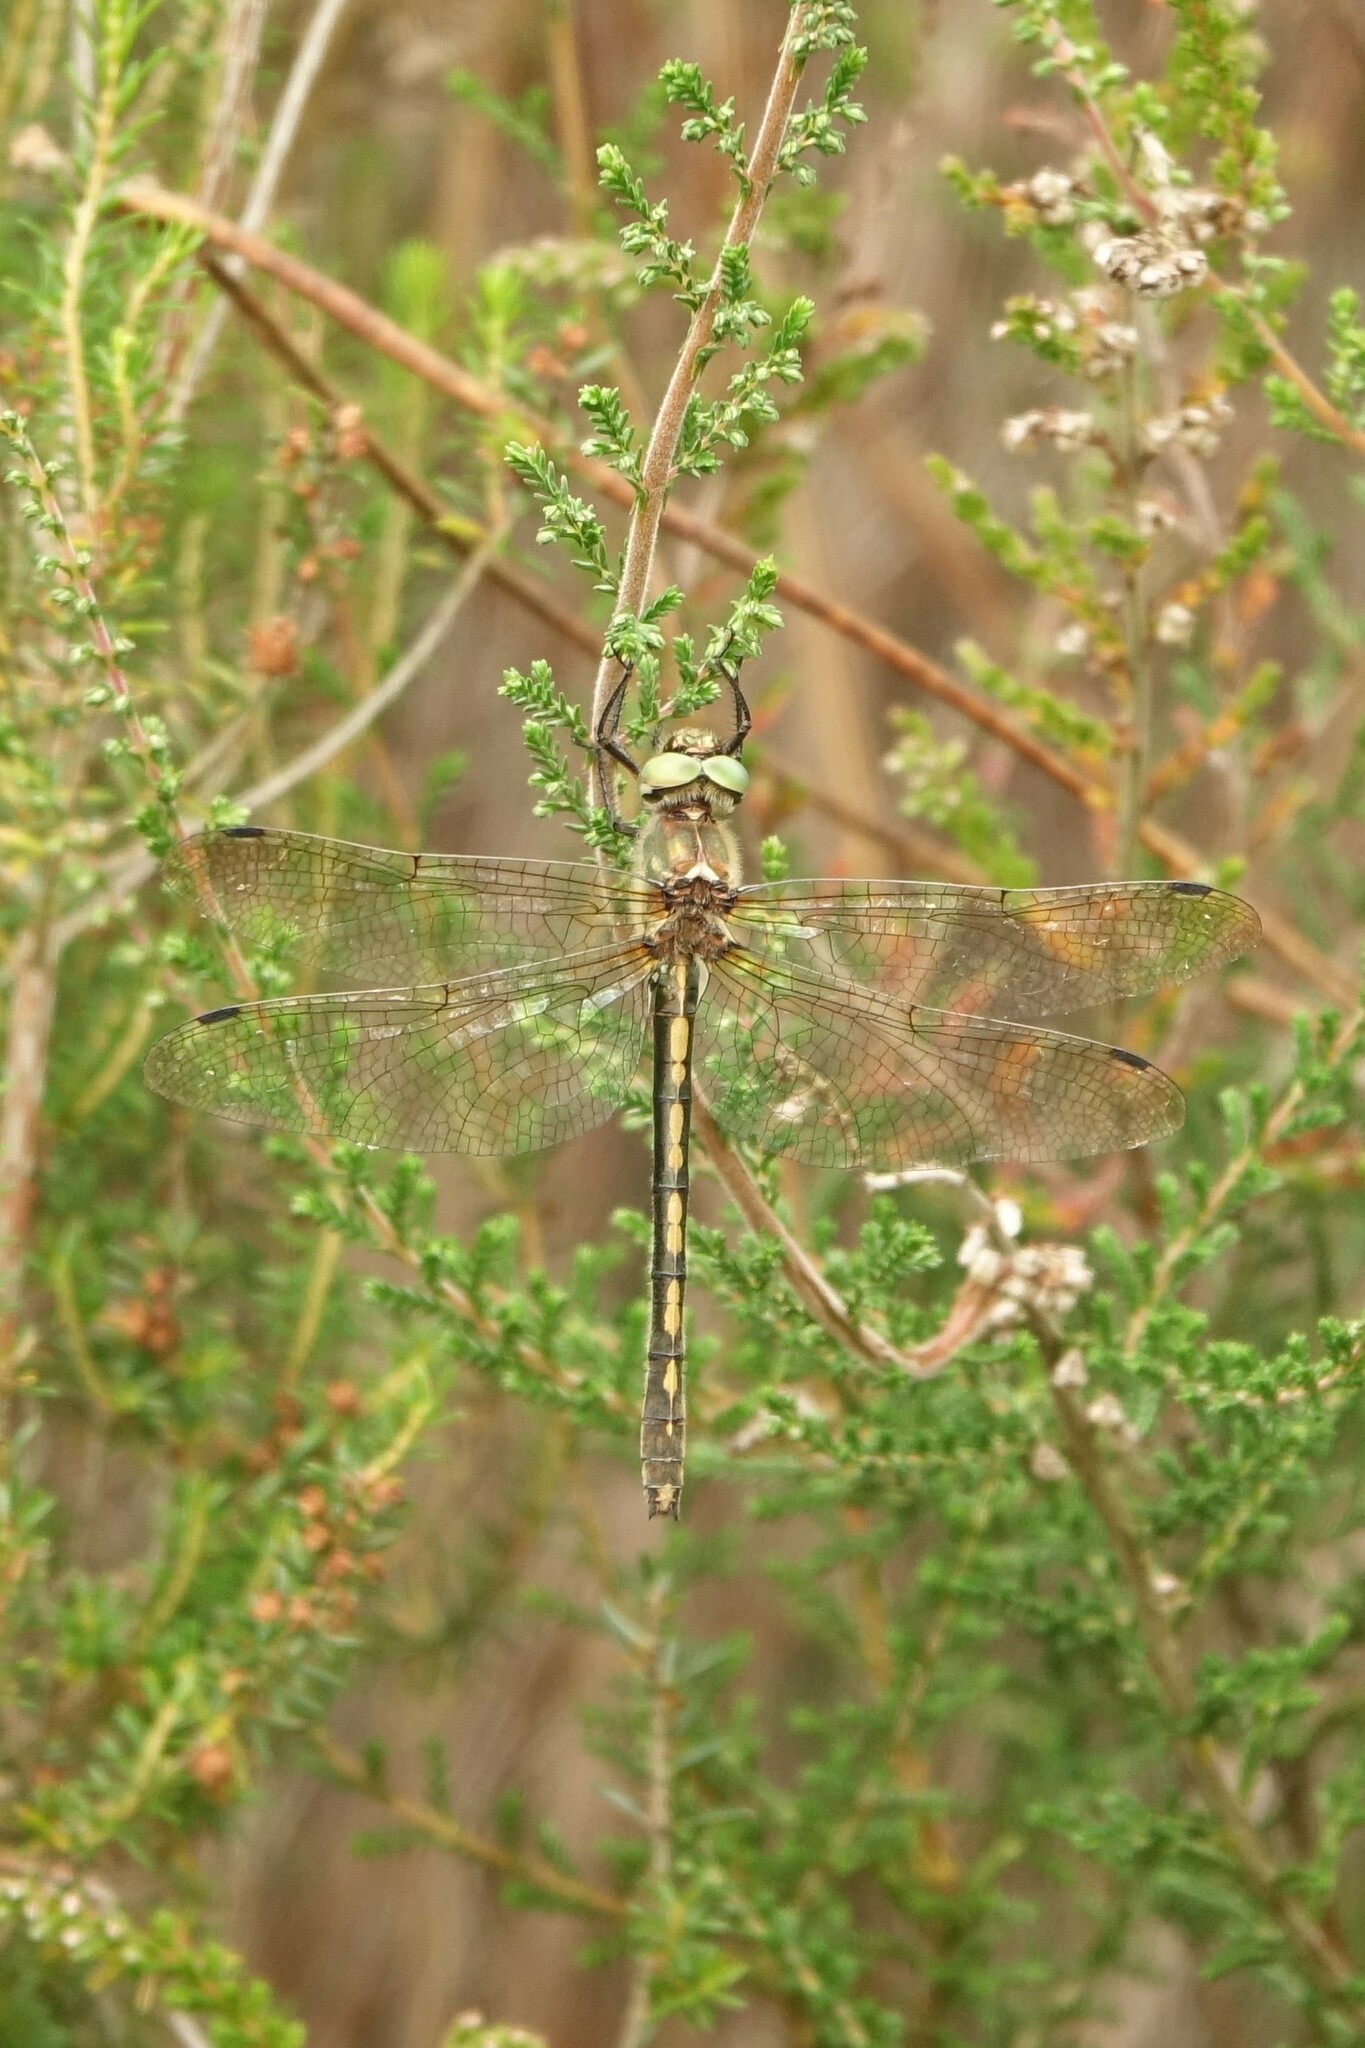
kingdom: Animalia
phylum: Arthropoda
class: Insecta
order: Odonata
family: Corduliidae
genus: Oxygastra
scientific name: Oxygastra curtisii
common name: Orange-spotted emerald
